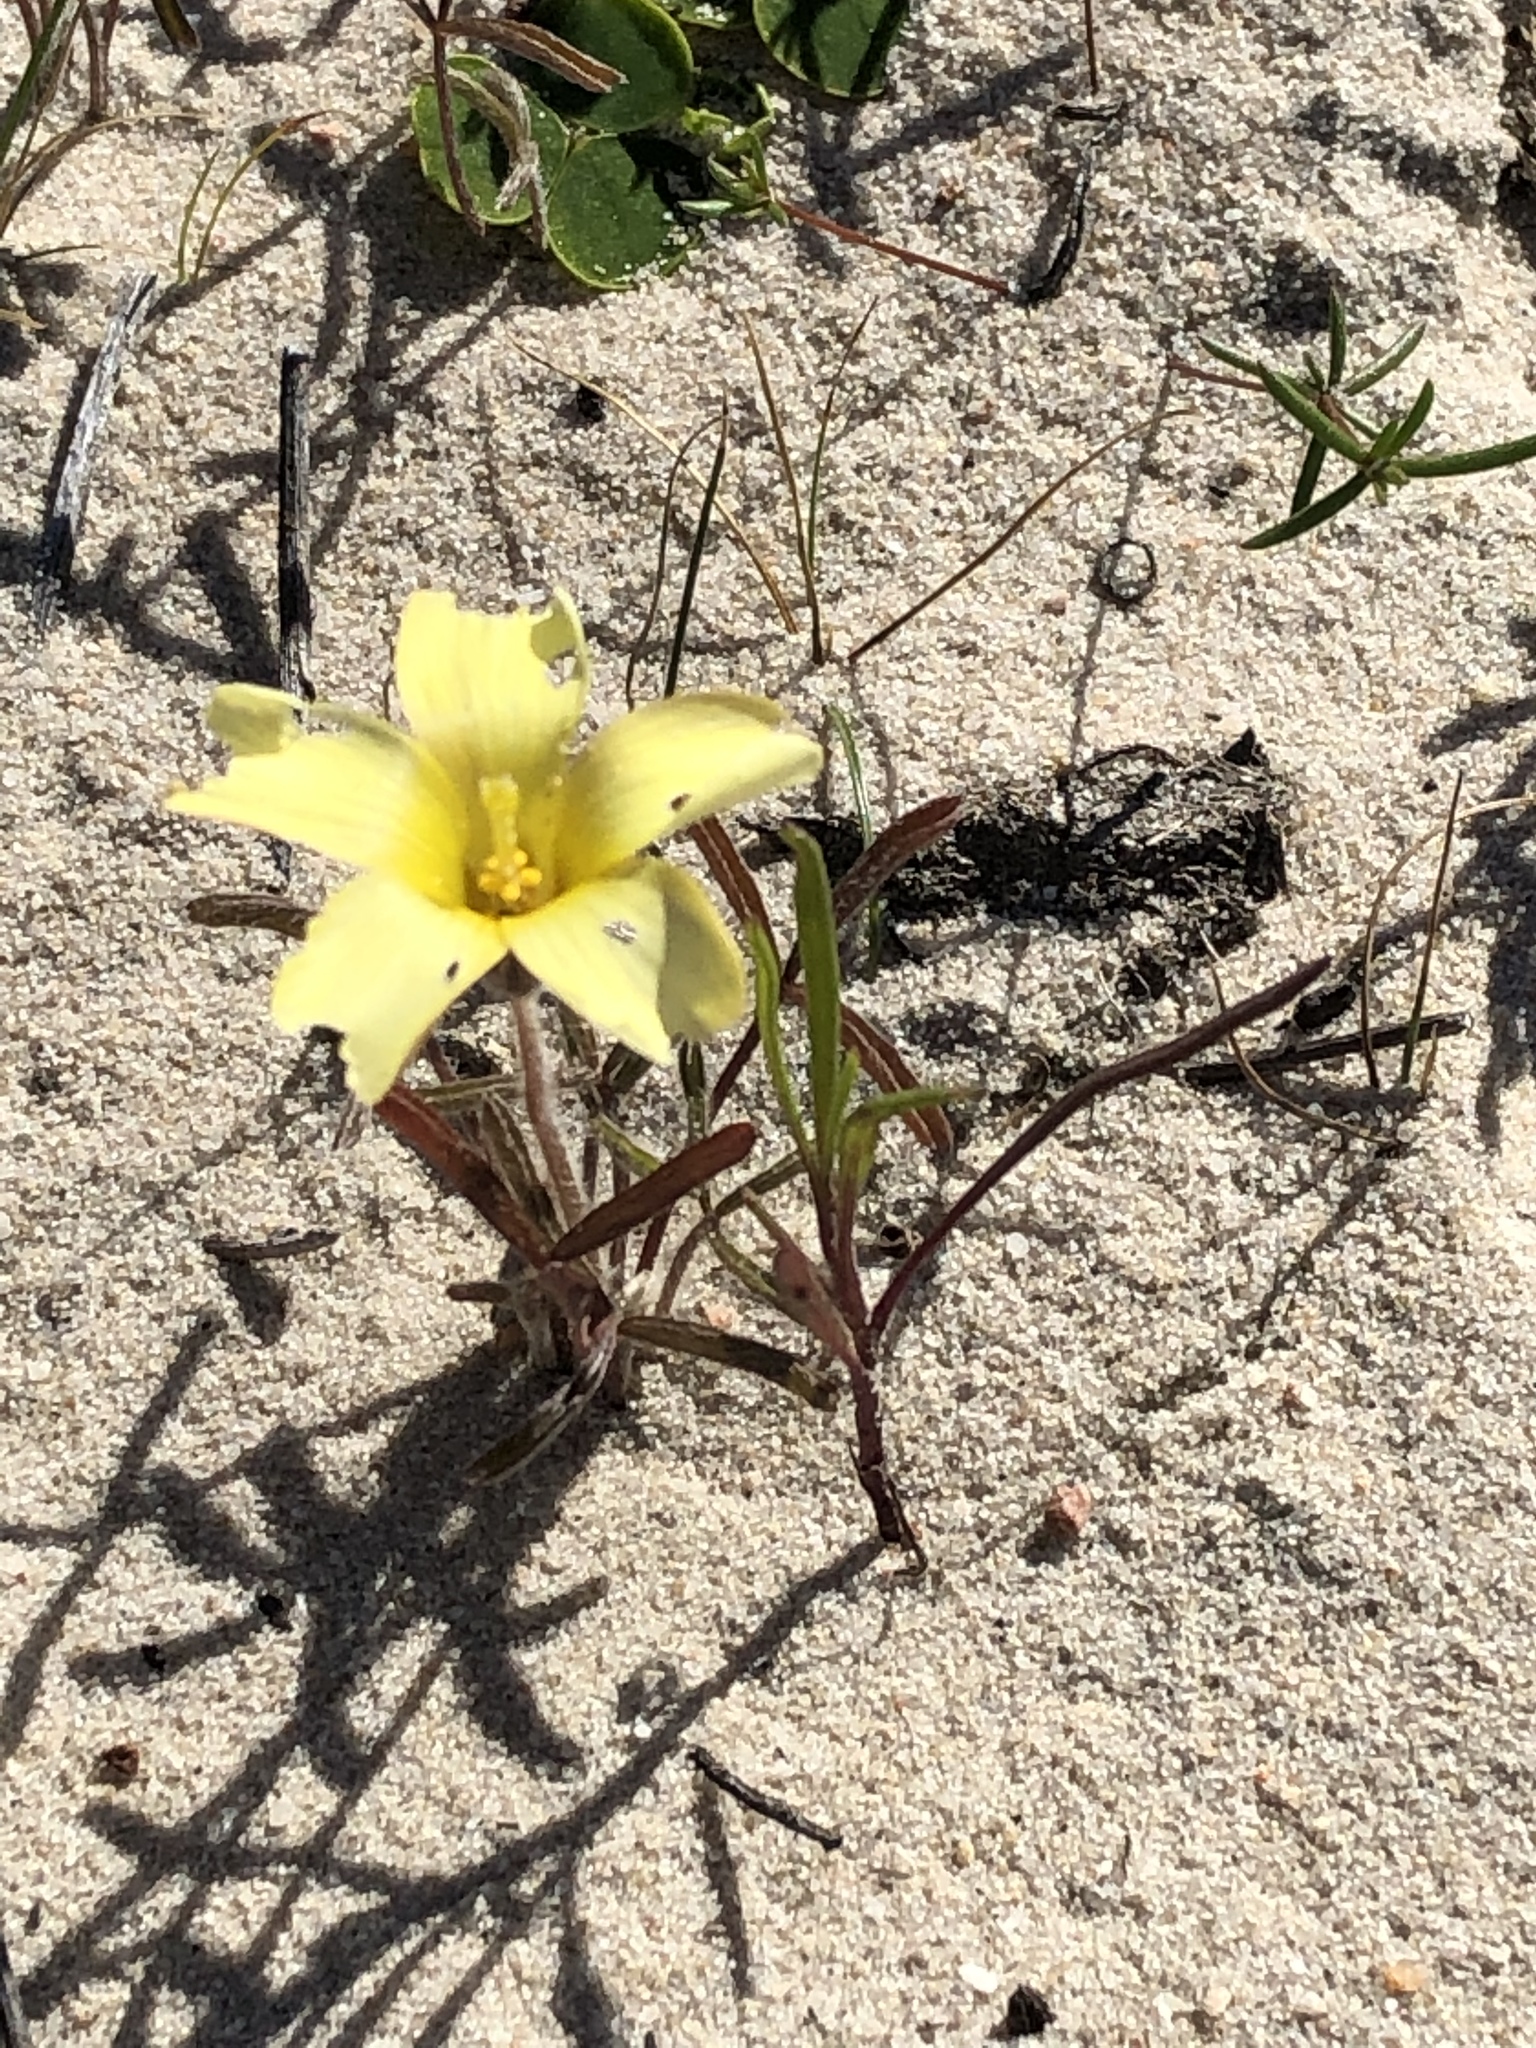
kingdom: Plantae
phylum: Tracheophyta
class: Magnoliopsida
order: Oxalidales
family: Oxalidaceae
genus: Oxalis
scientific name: Oxalis obtusa
